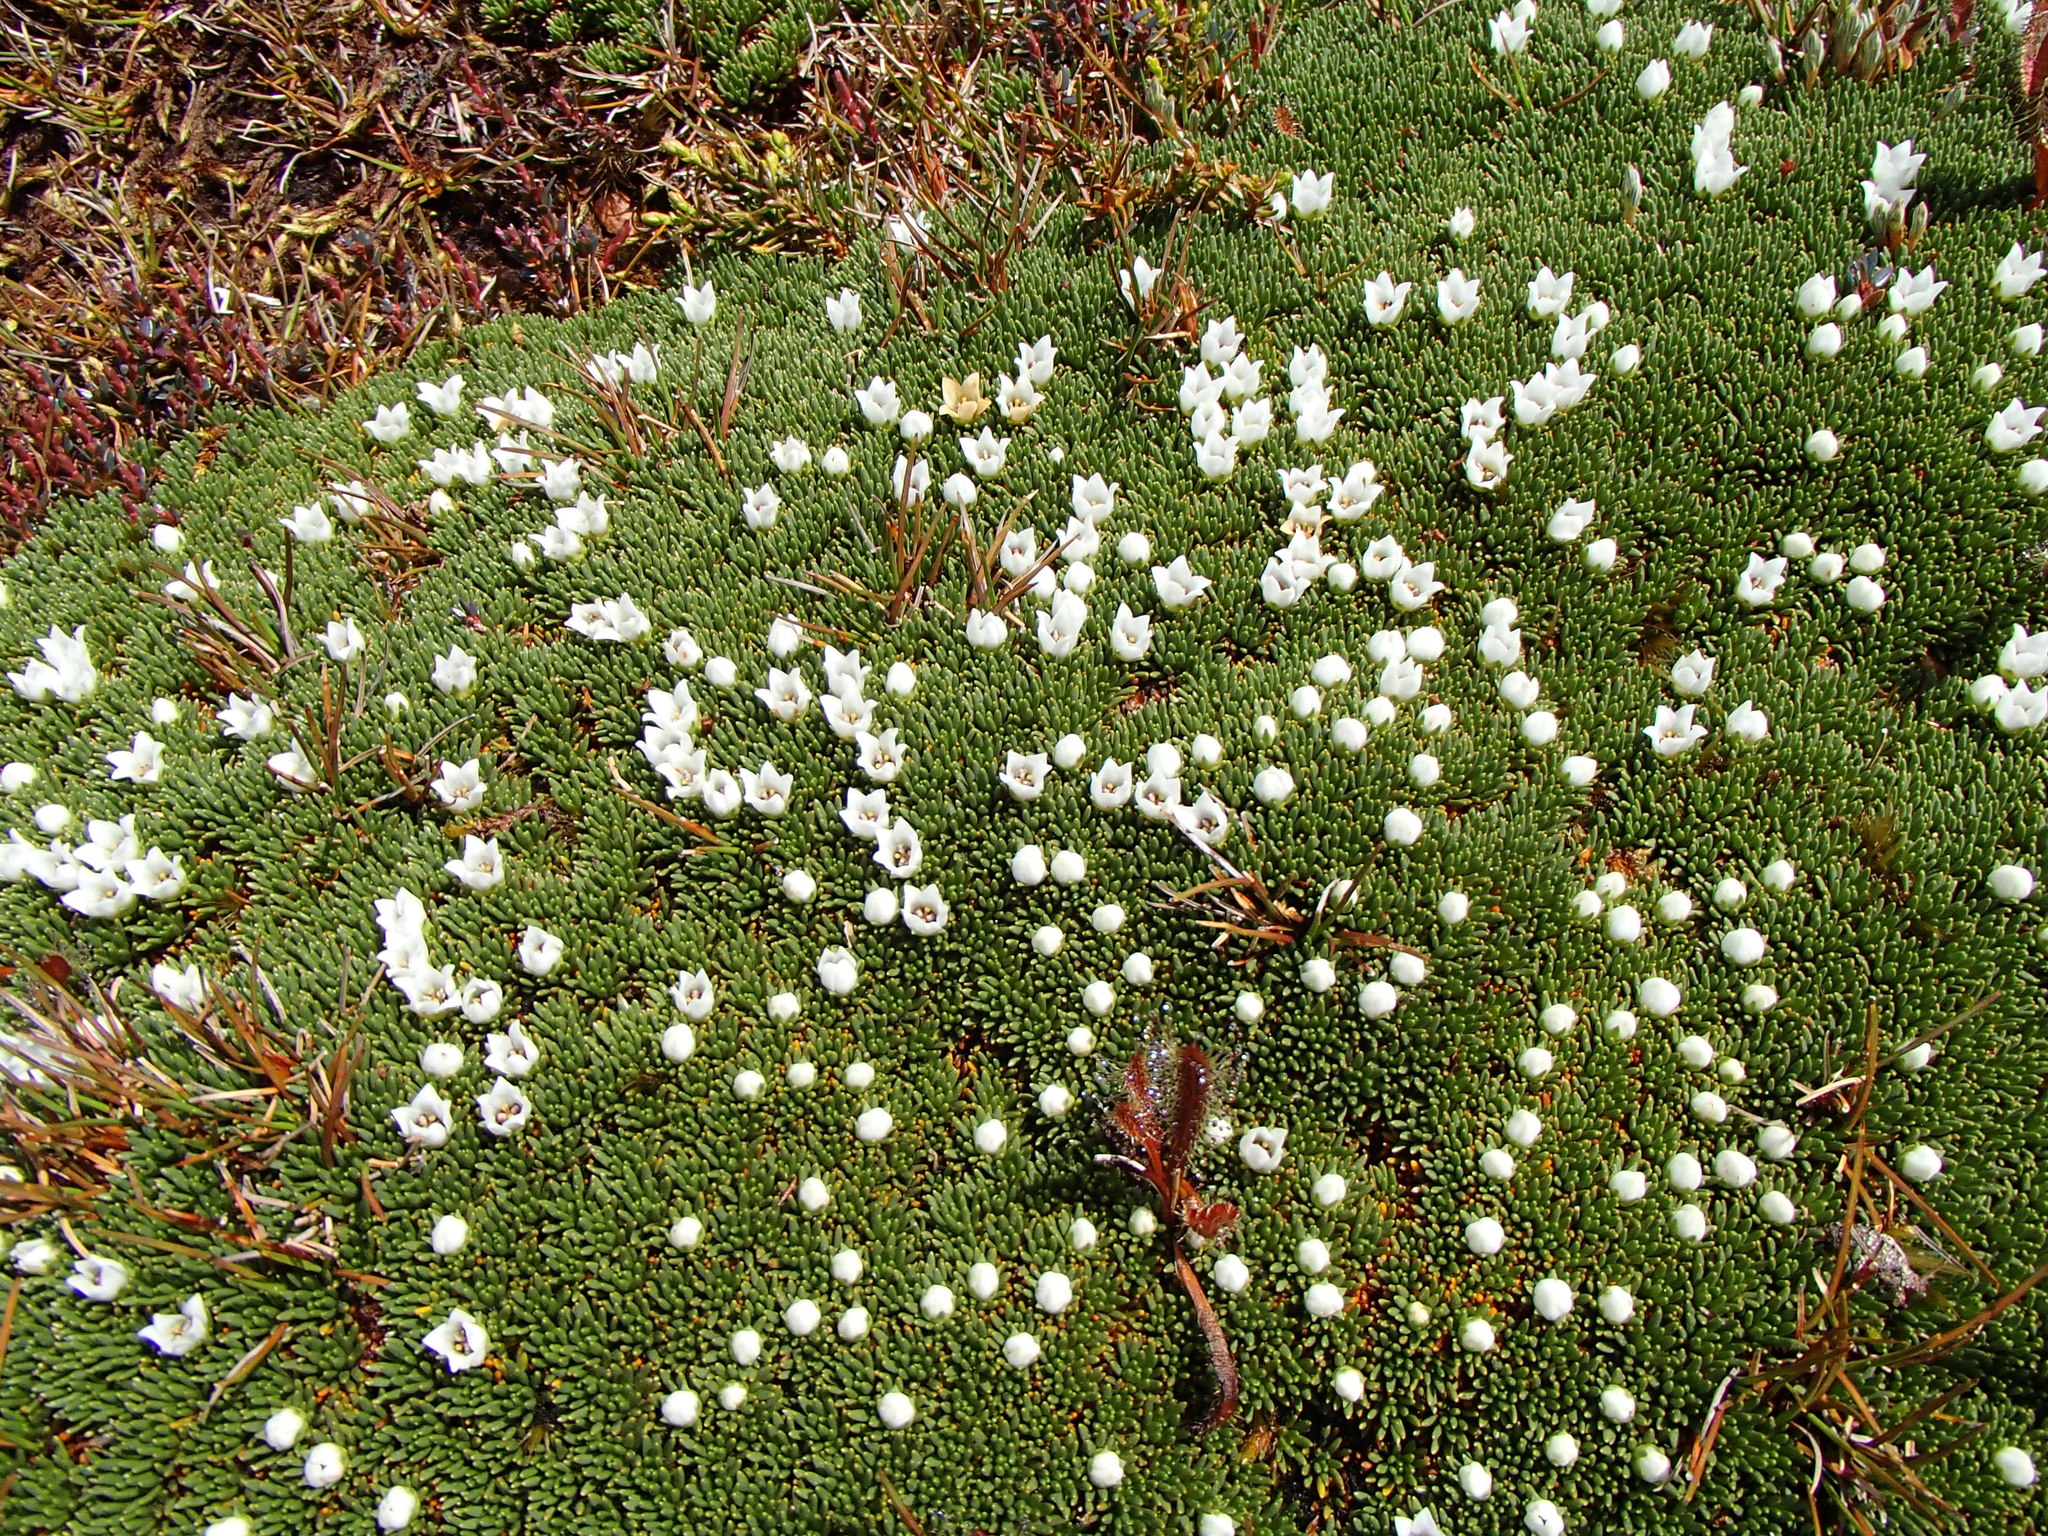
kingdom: Plantae
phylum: Tracheophyta
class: Magnoliopsida
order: Asterales
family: Stylidiaceae
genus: Donatia
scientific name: Donatia novae-zelandiae
